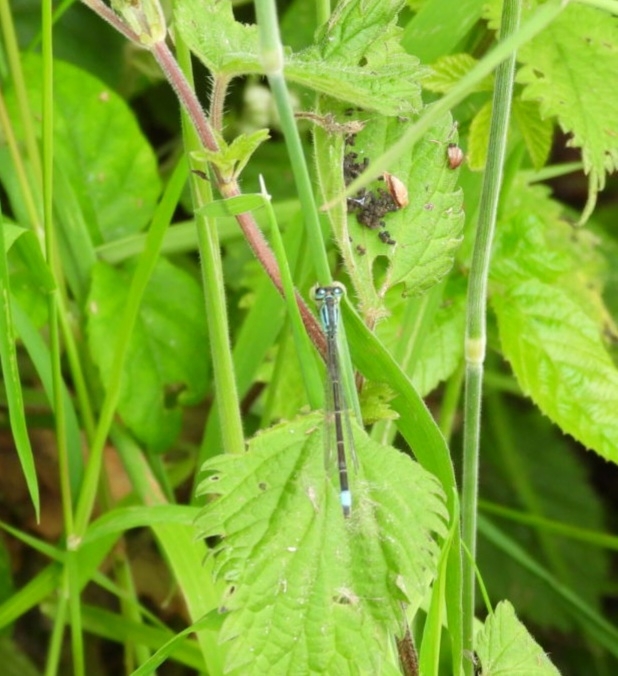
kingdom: Animalia
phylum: Arthropoda
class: Insecta
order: Odonata
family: Coenagrionidae
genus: Ischnura
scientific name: Ischnura elegans
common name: Blue-tailed damselfly
